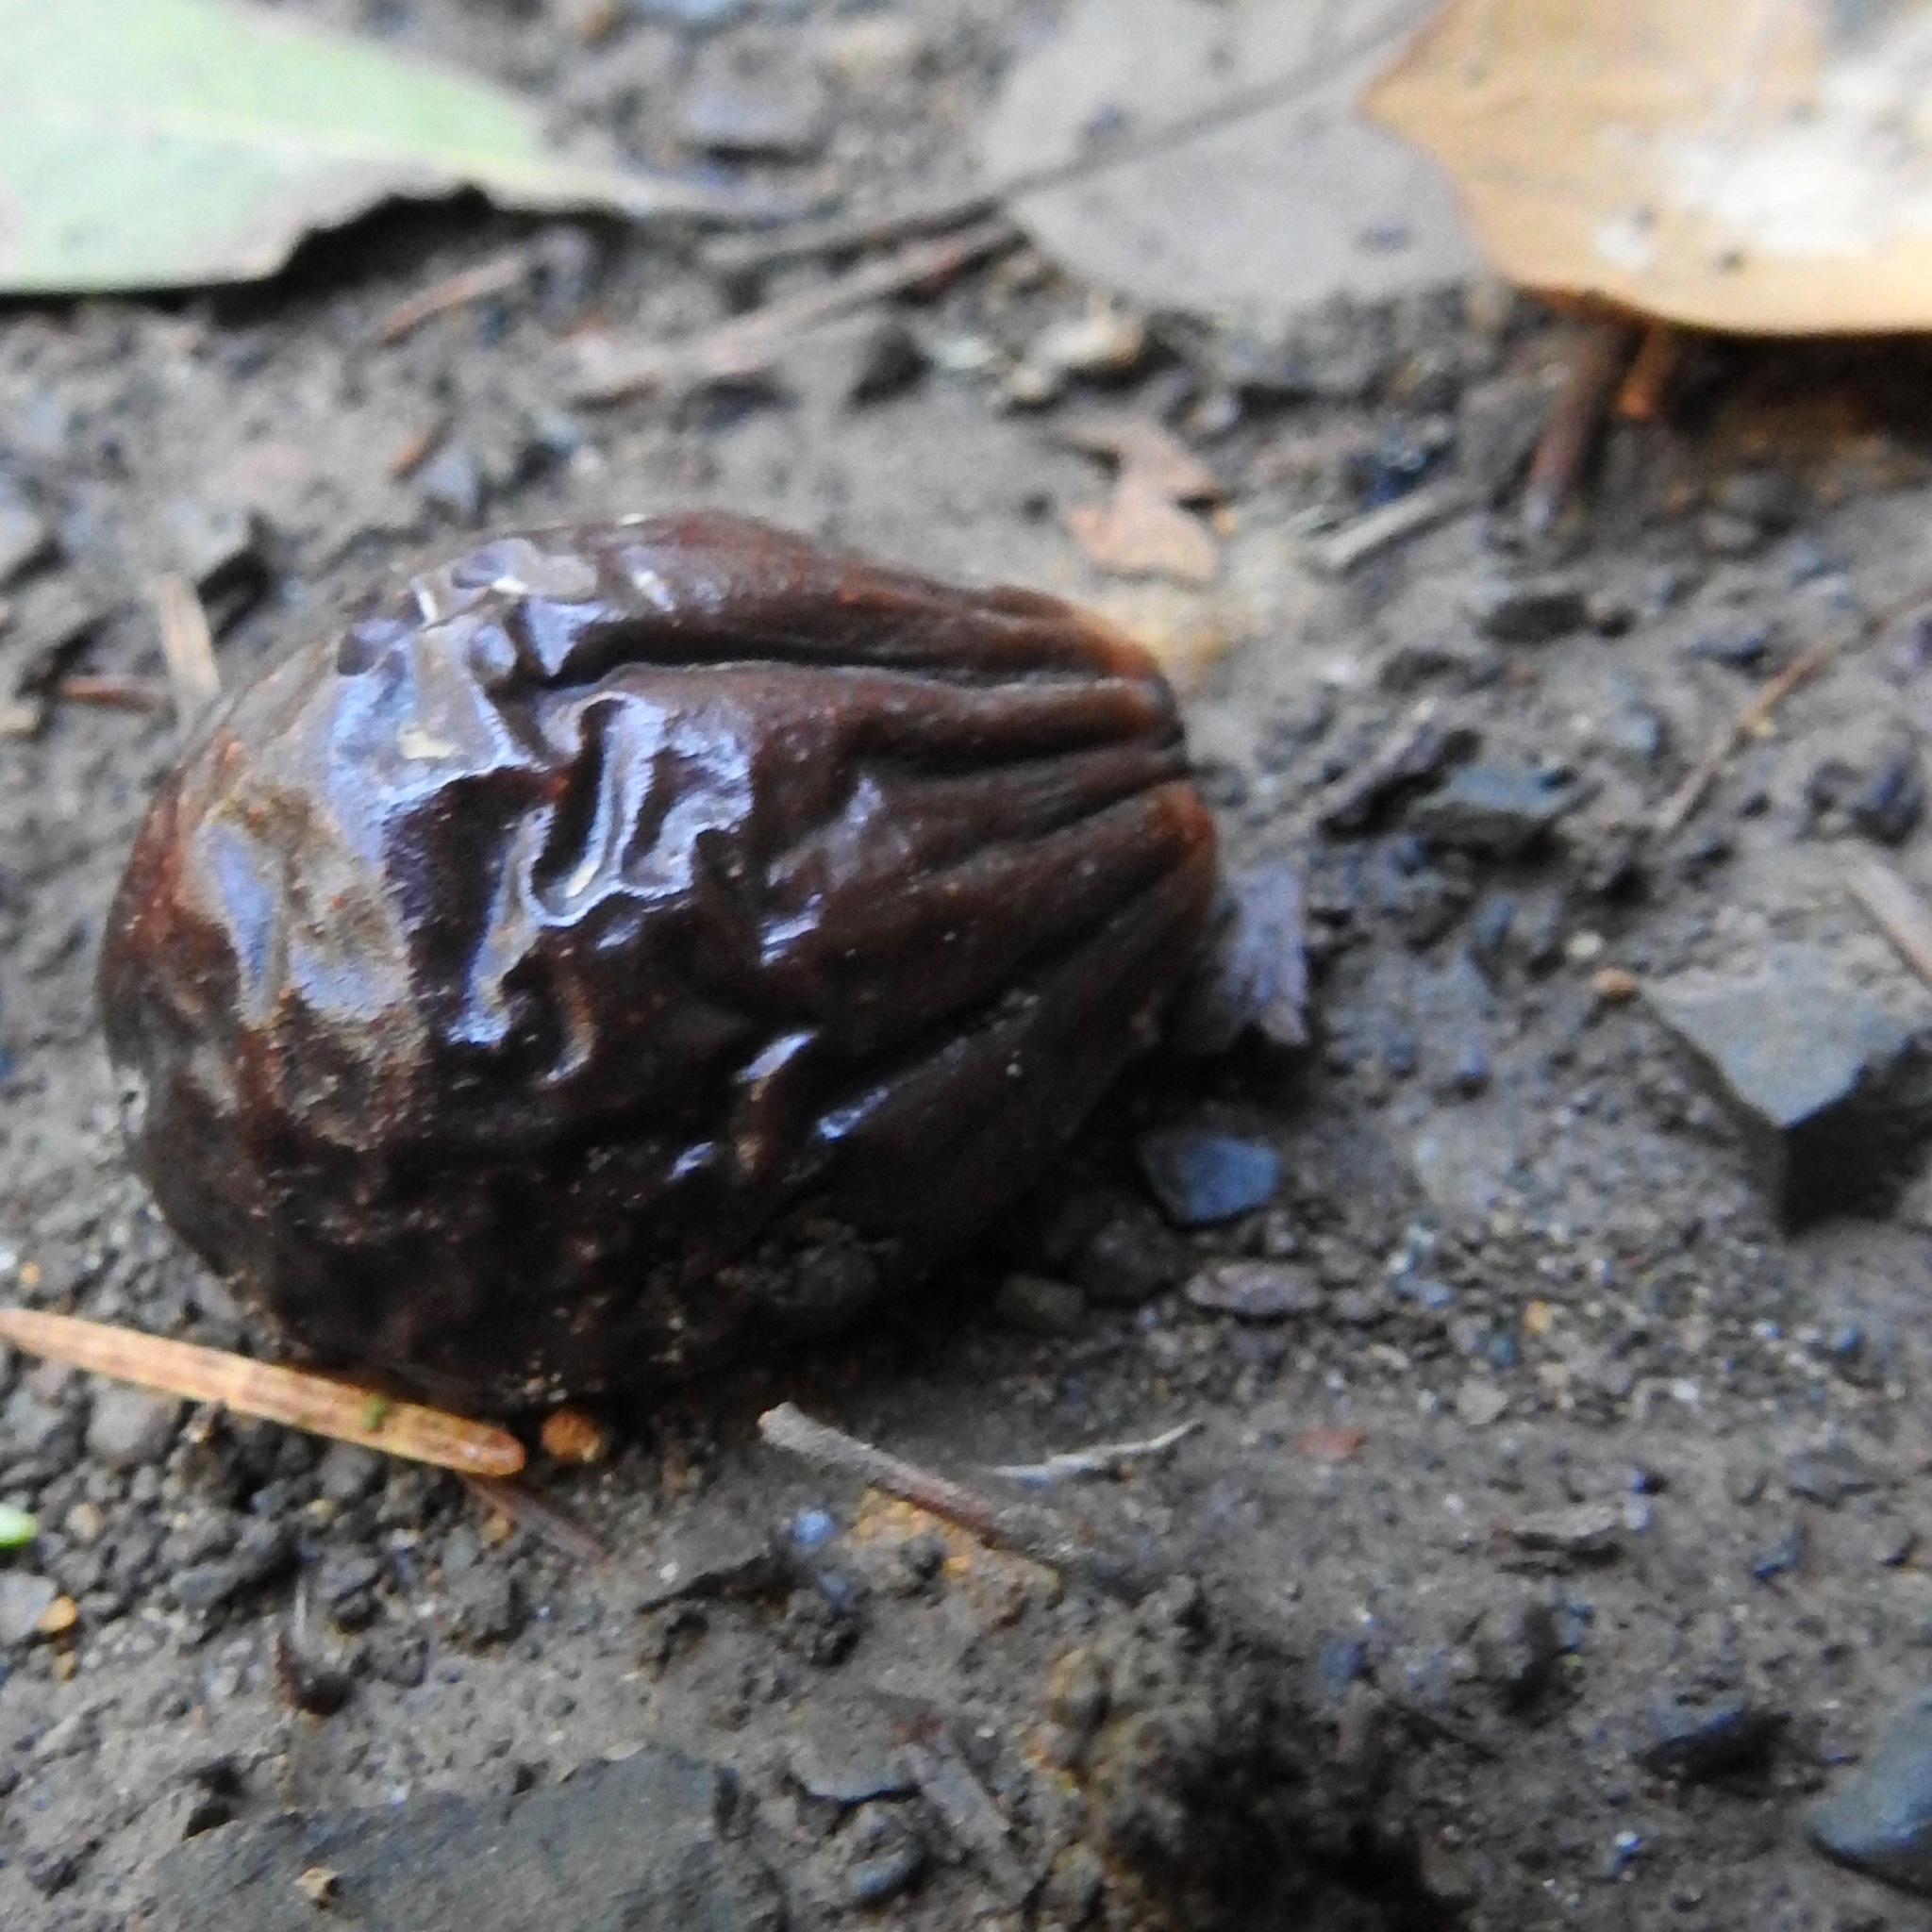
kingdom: Plantae
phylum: Tracheophyta
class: Magnoliopsida
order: Laurales
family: Lauraceae
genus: Umbellularia
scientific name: Umbellularia californica
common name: California bay
